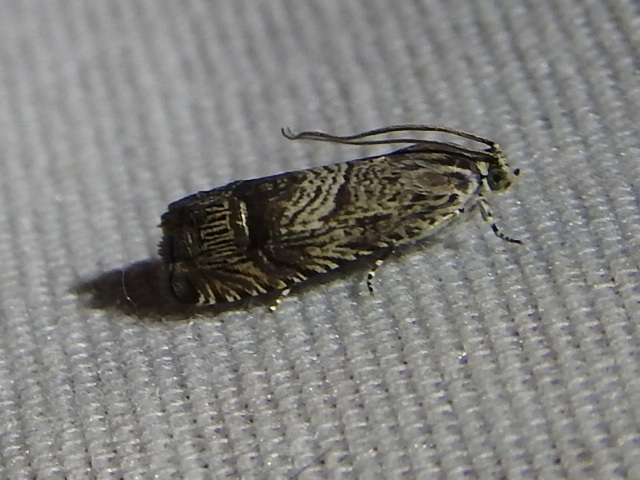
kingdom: Animalia
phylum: Arthropoda
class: Insecta
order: Lepidoptera
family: Tortricidae
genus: Ofatulena
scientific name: Ofatulena duodecemstriata
